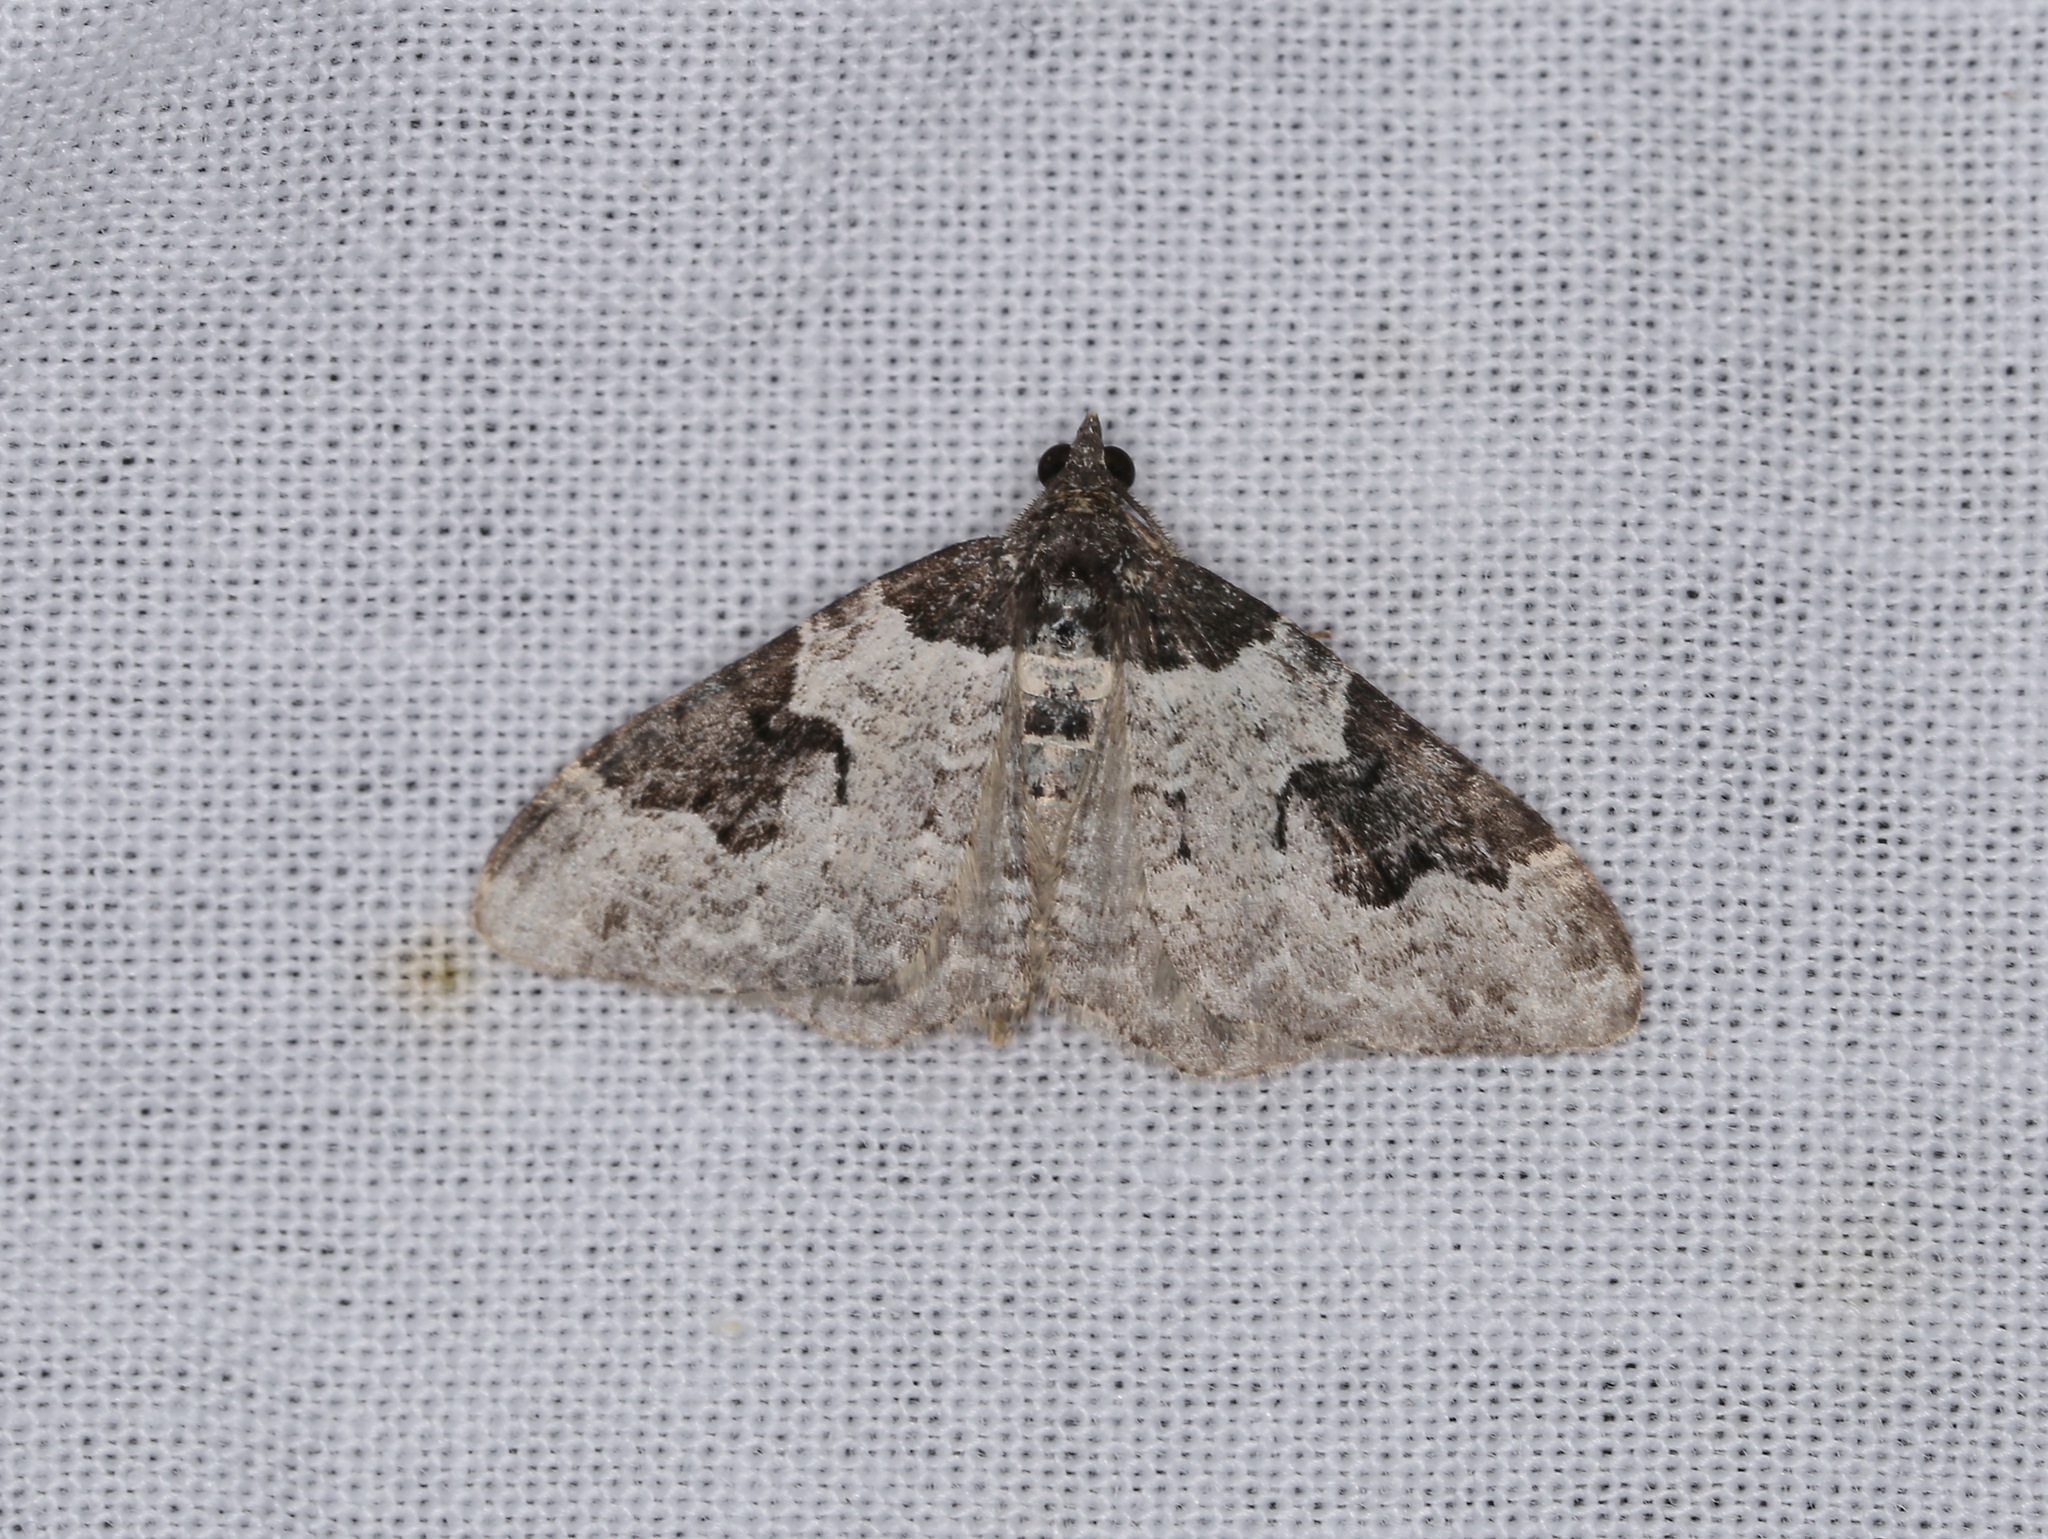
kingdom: Animalia
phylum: Arthropoda
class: Insecta
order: Lepidoptera
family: Geometridae
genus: Xanthorhoe
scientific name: Xanthorhoe fluctuata
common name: Garden carpet
